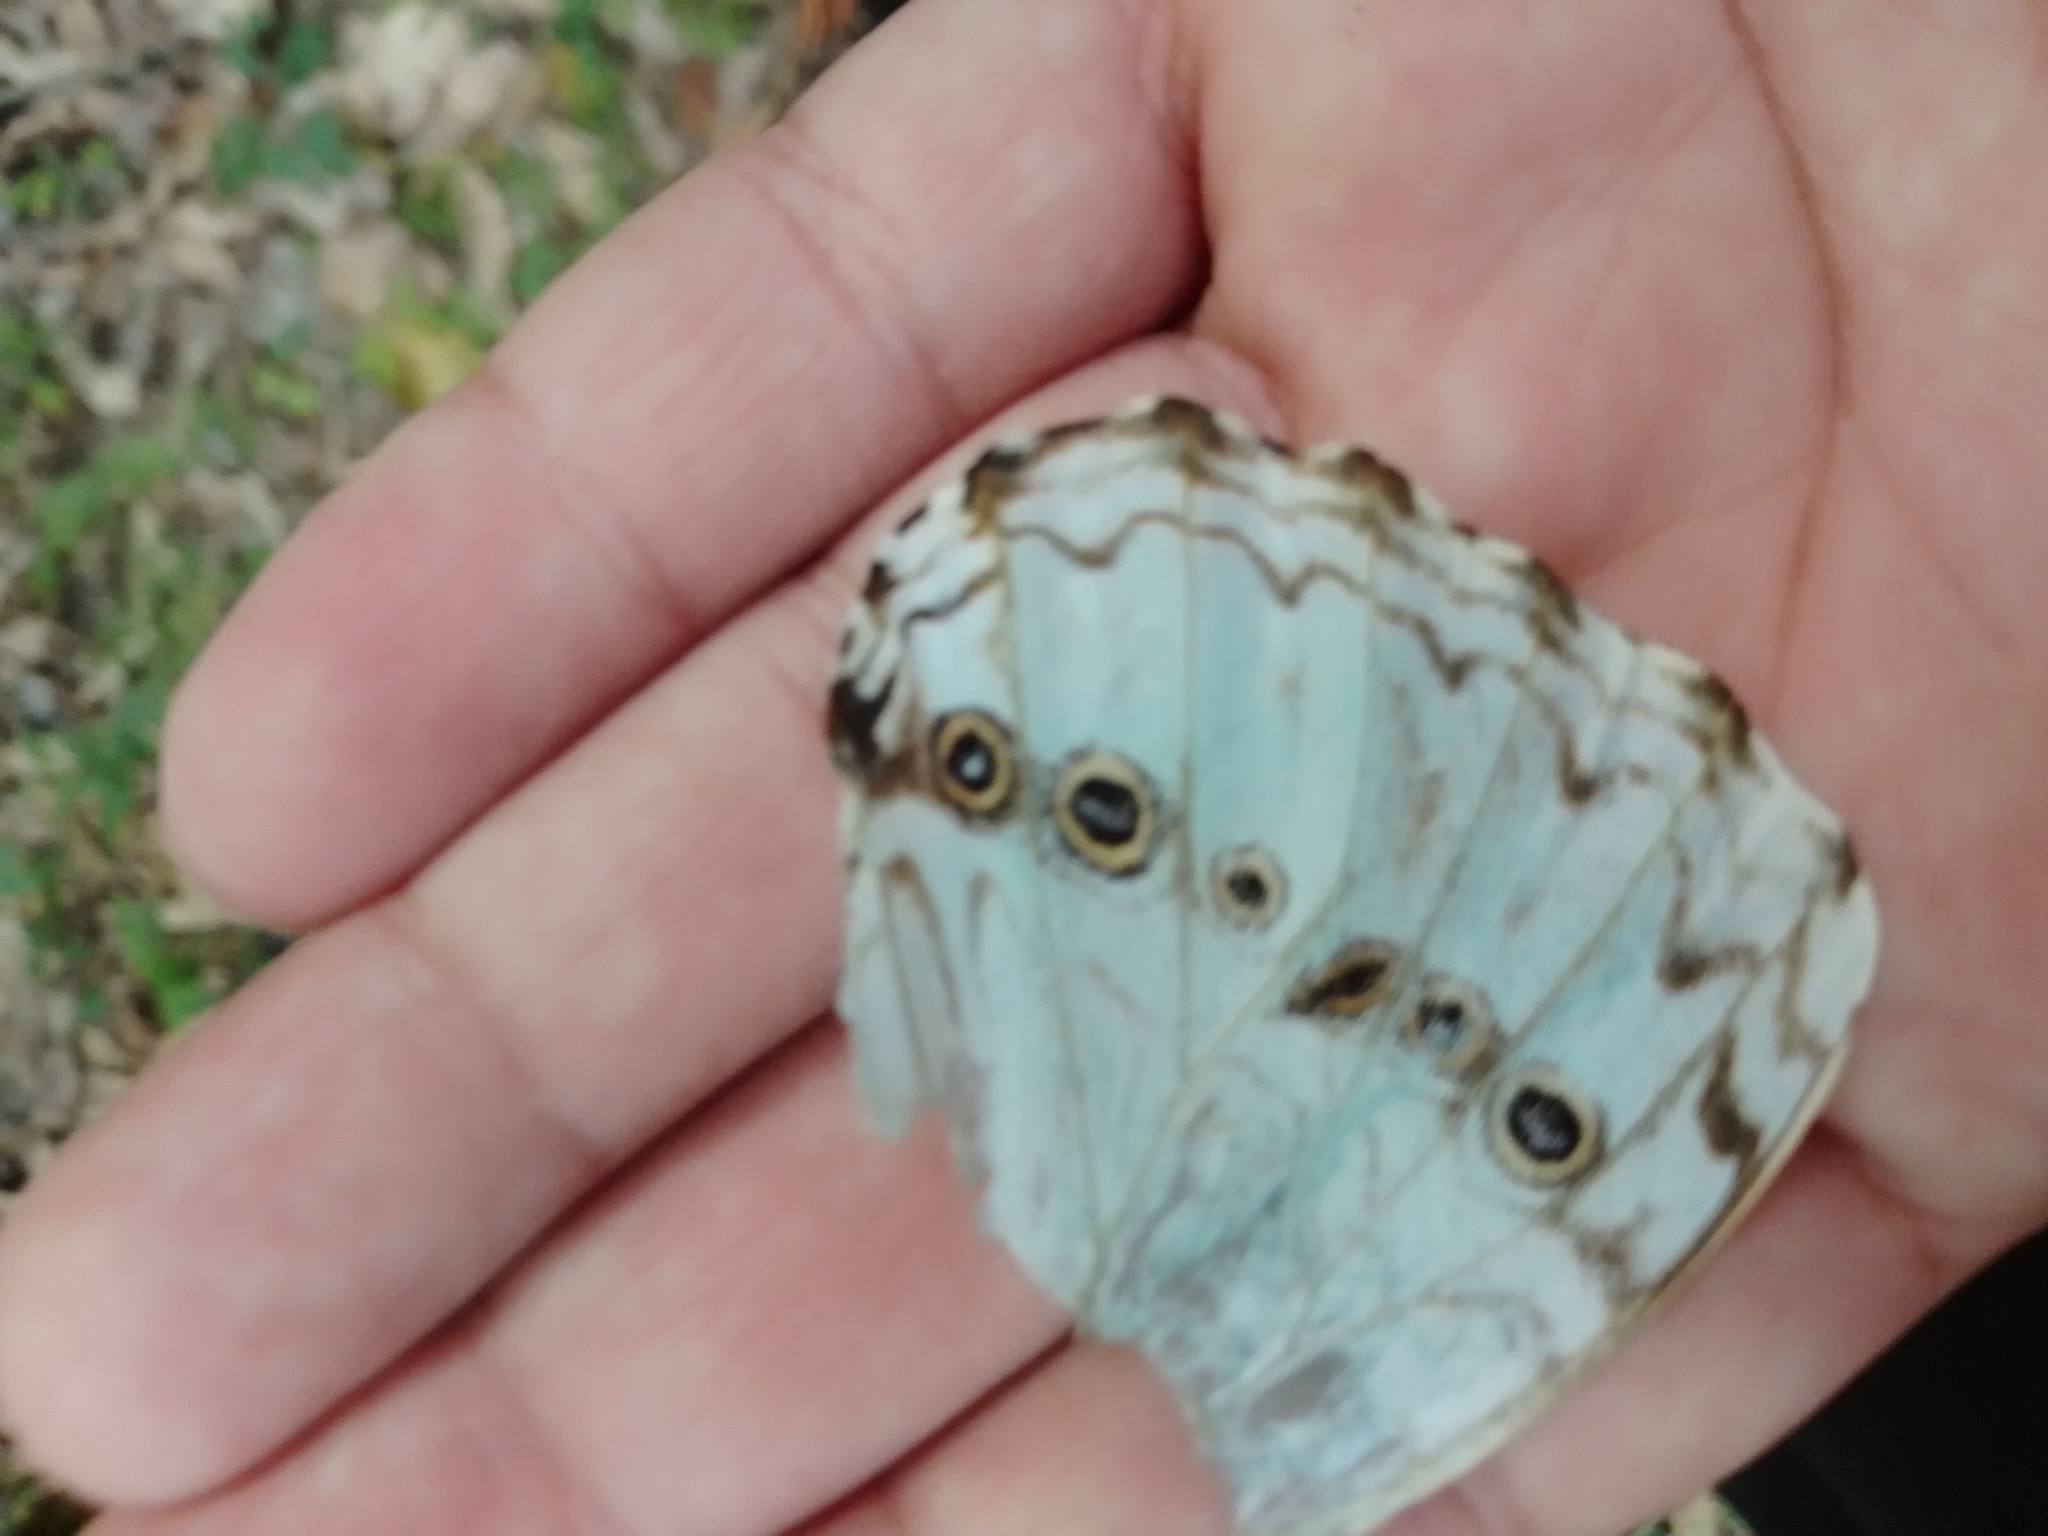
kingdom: Animalia
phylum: Arthropoda
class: Insecta
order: Lepidoptera
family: Nymphalidae
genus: Morpho
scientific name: Morpho epistrophus
